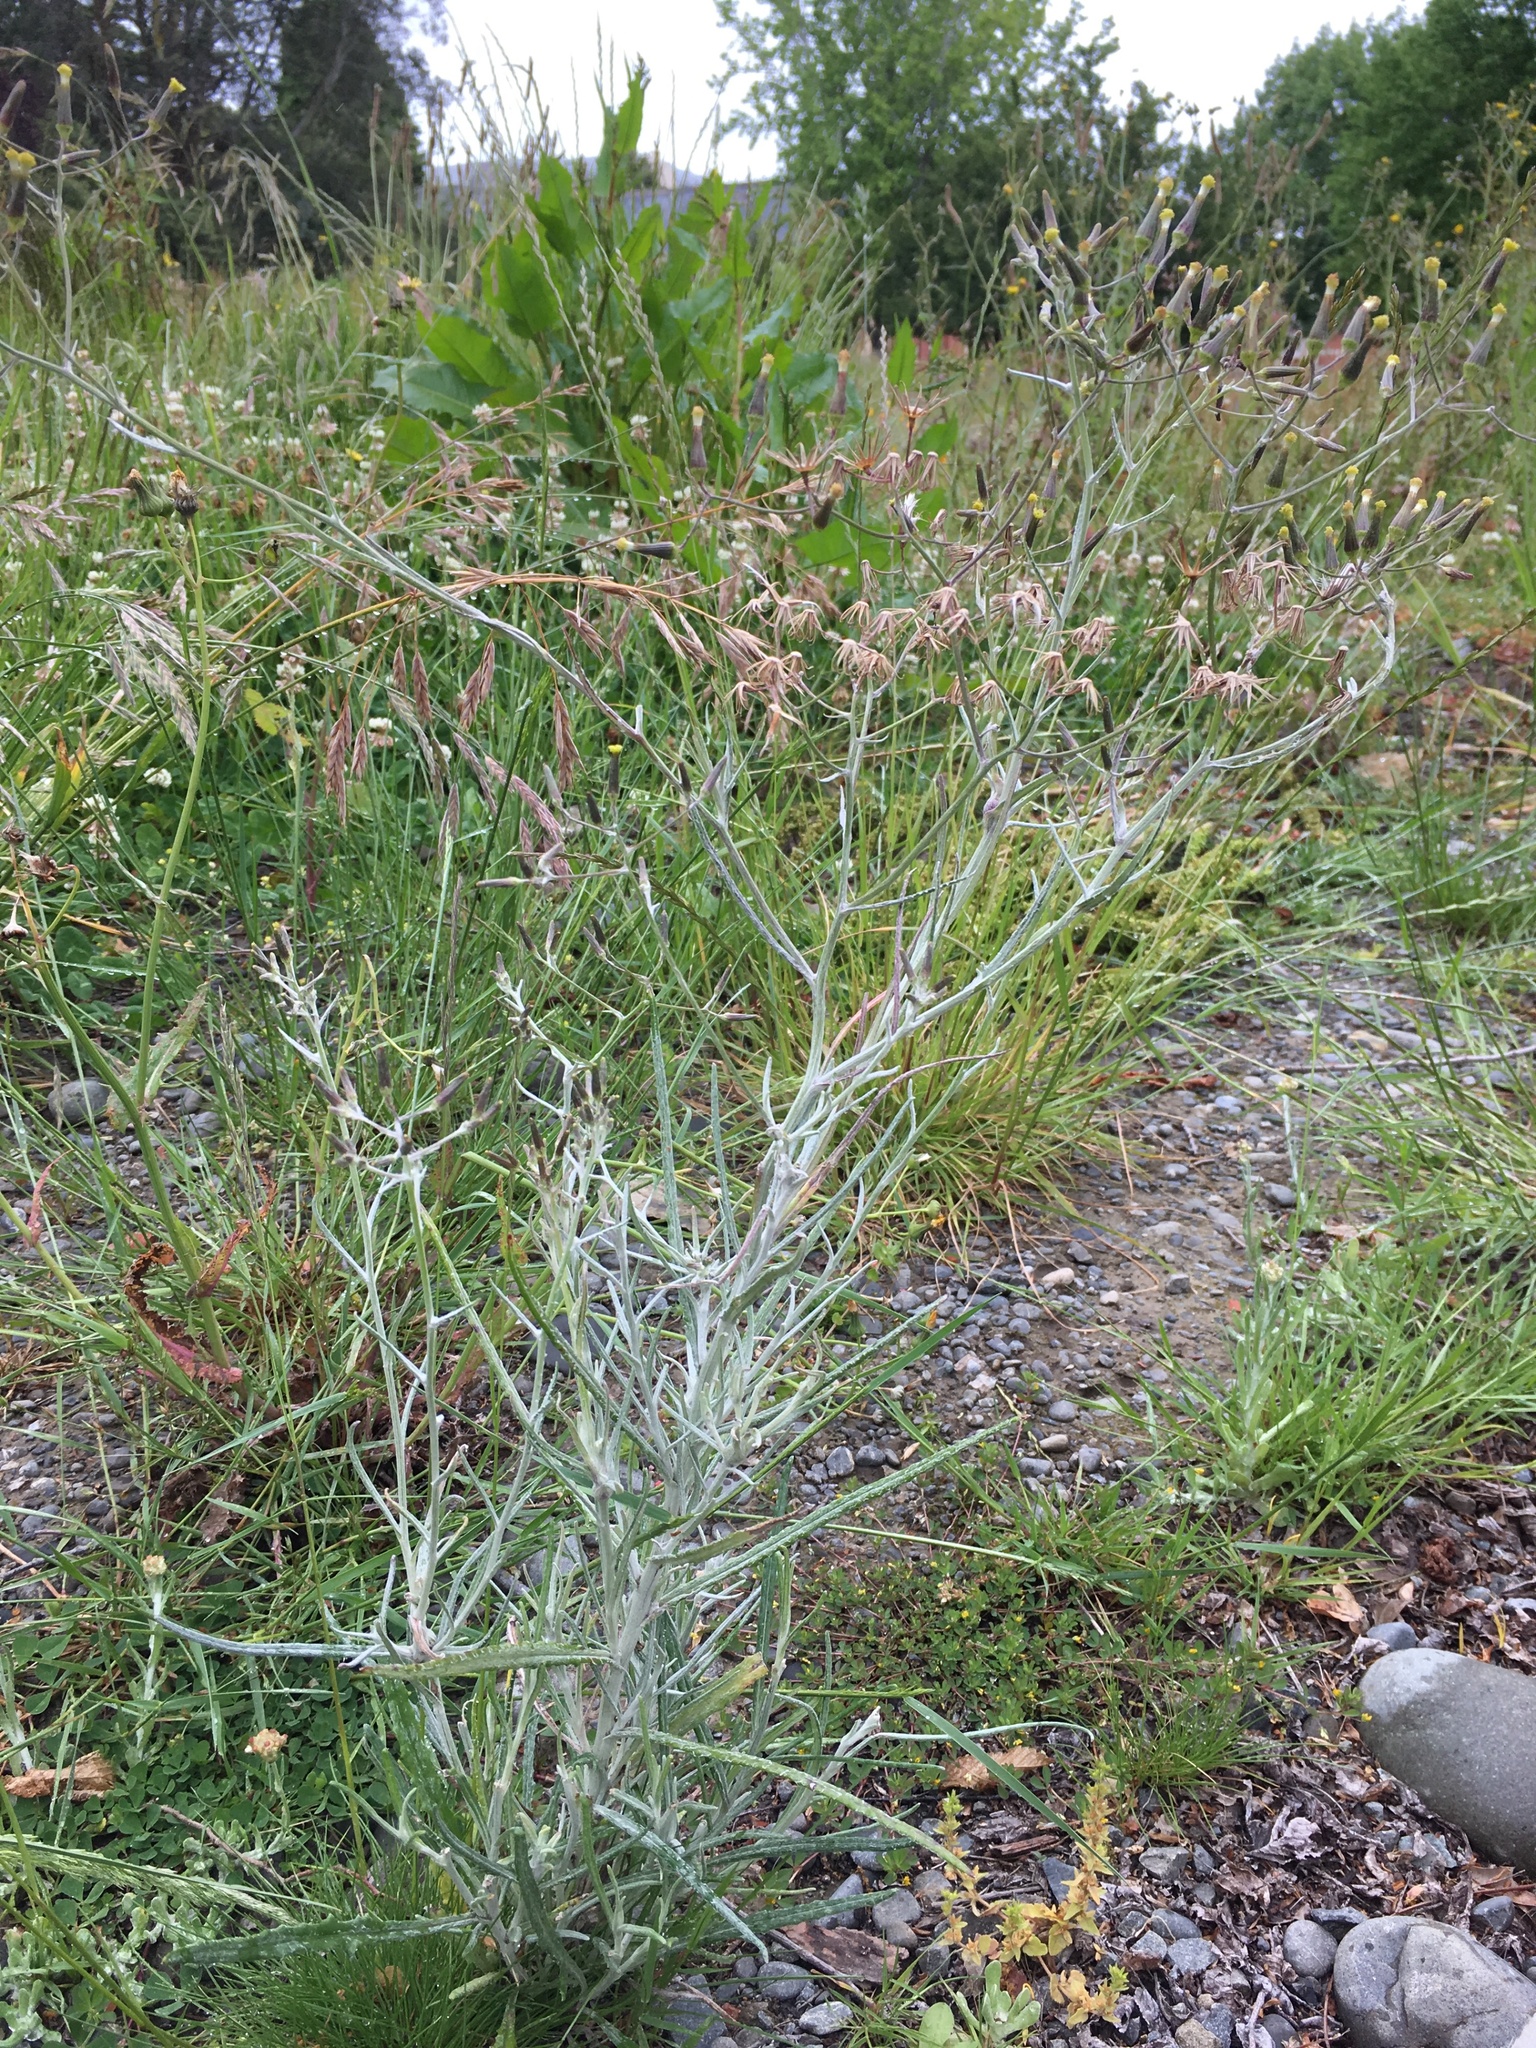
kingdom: Plantae
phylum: Tracheophyta
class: Magnoliopsida
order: Asterales
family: Asteraceae
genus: Senecio
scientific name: Senecio quadridentatus
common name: Cotton fireweed
